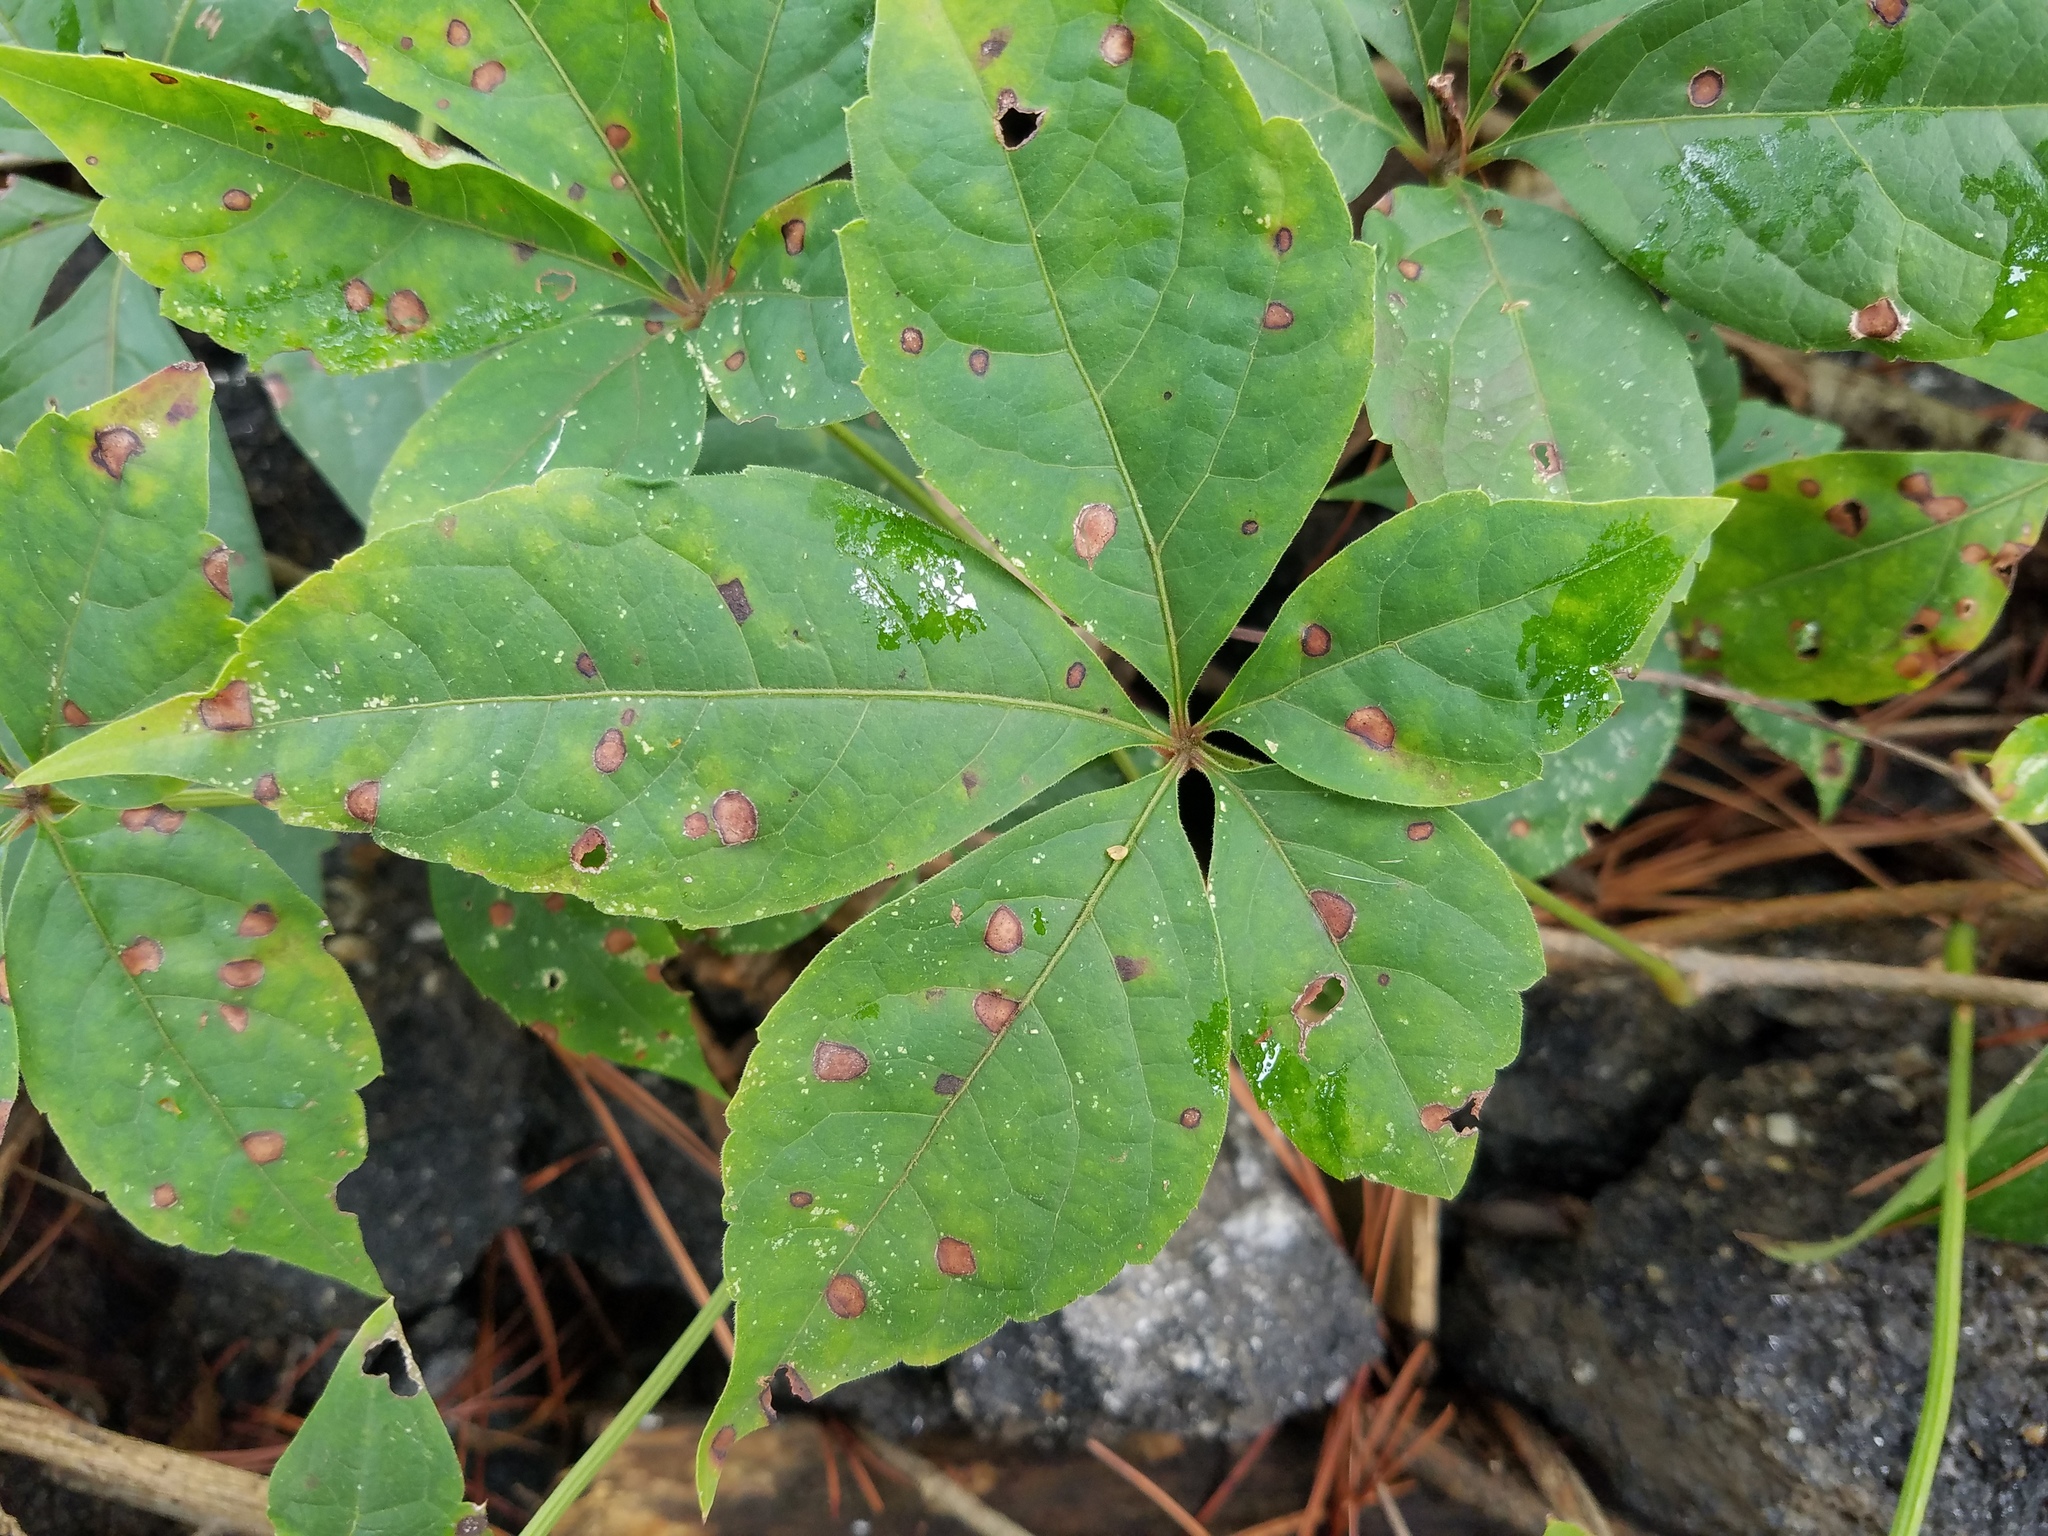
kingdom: Plantae
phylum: Tracheophyta
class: Magnoliopsida
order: Vitales
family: Vitaceae
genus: Parthenocissus
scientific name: Parthenocissus quinquefolia
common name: Virginia-creeper
